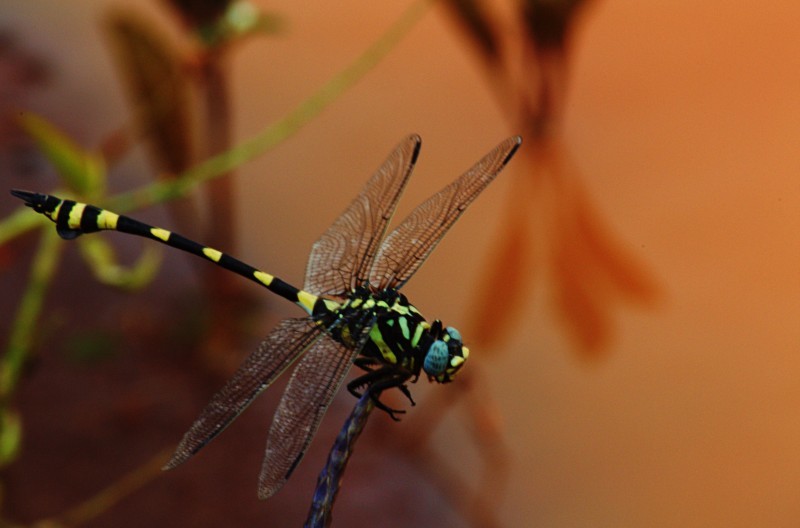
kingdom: Animalia
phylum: Arthropoda
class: Insecta
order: Odonata
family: Gomphidae
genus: Ictinogomphus
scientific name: Ictinogomphus rapax
